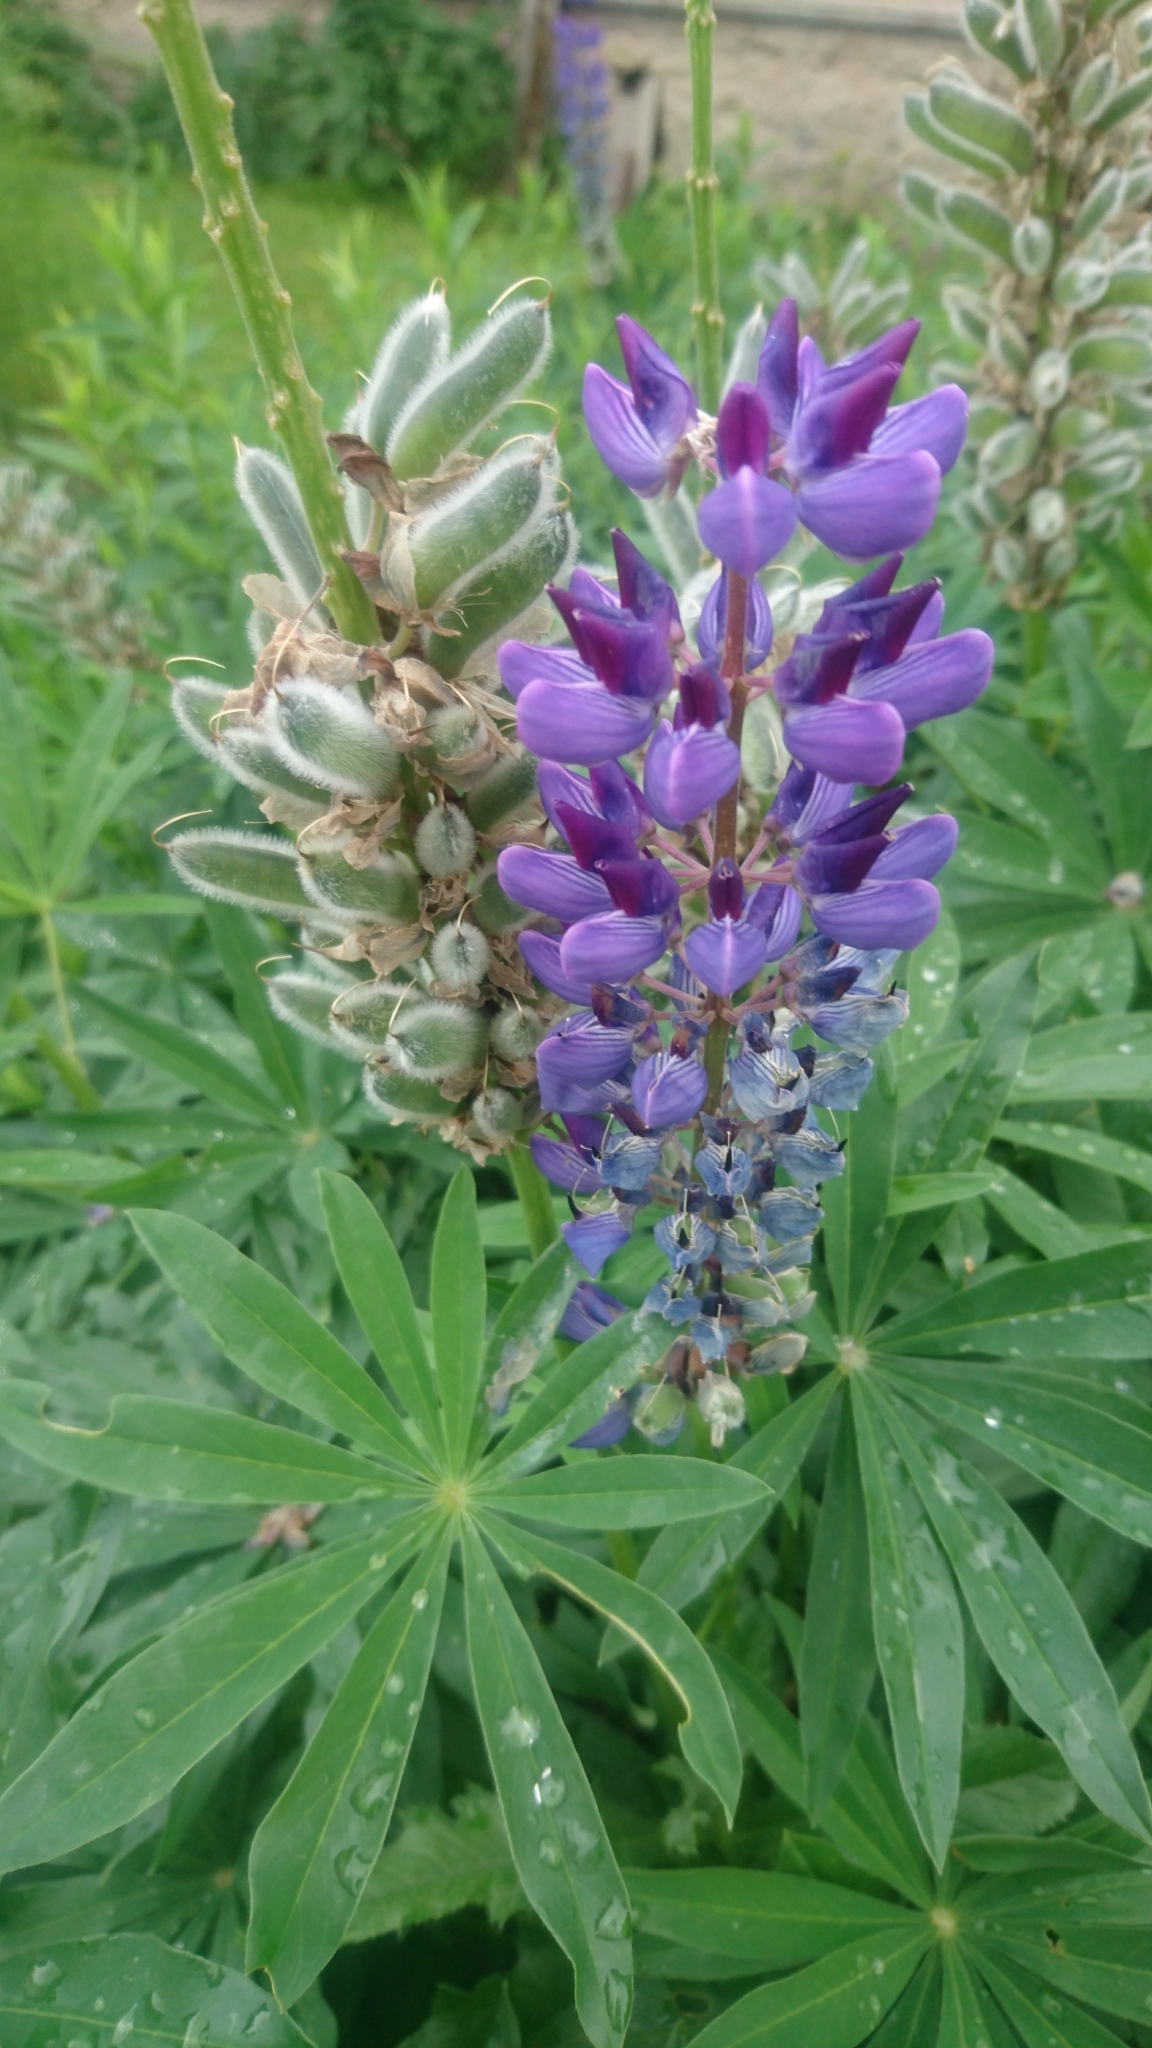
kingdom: Plantae
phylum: Tracheophyta
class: Magnoliopsida
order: Fabales
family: Fabaceae
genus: Lupinus
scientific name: Lupinus polyphyllus
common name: Garden lupin
